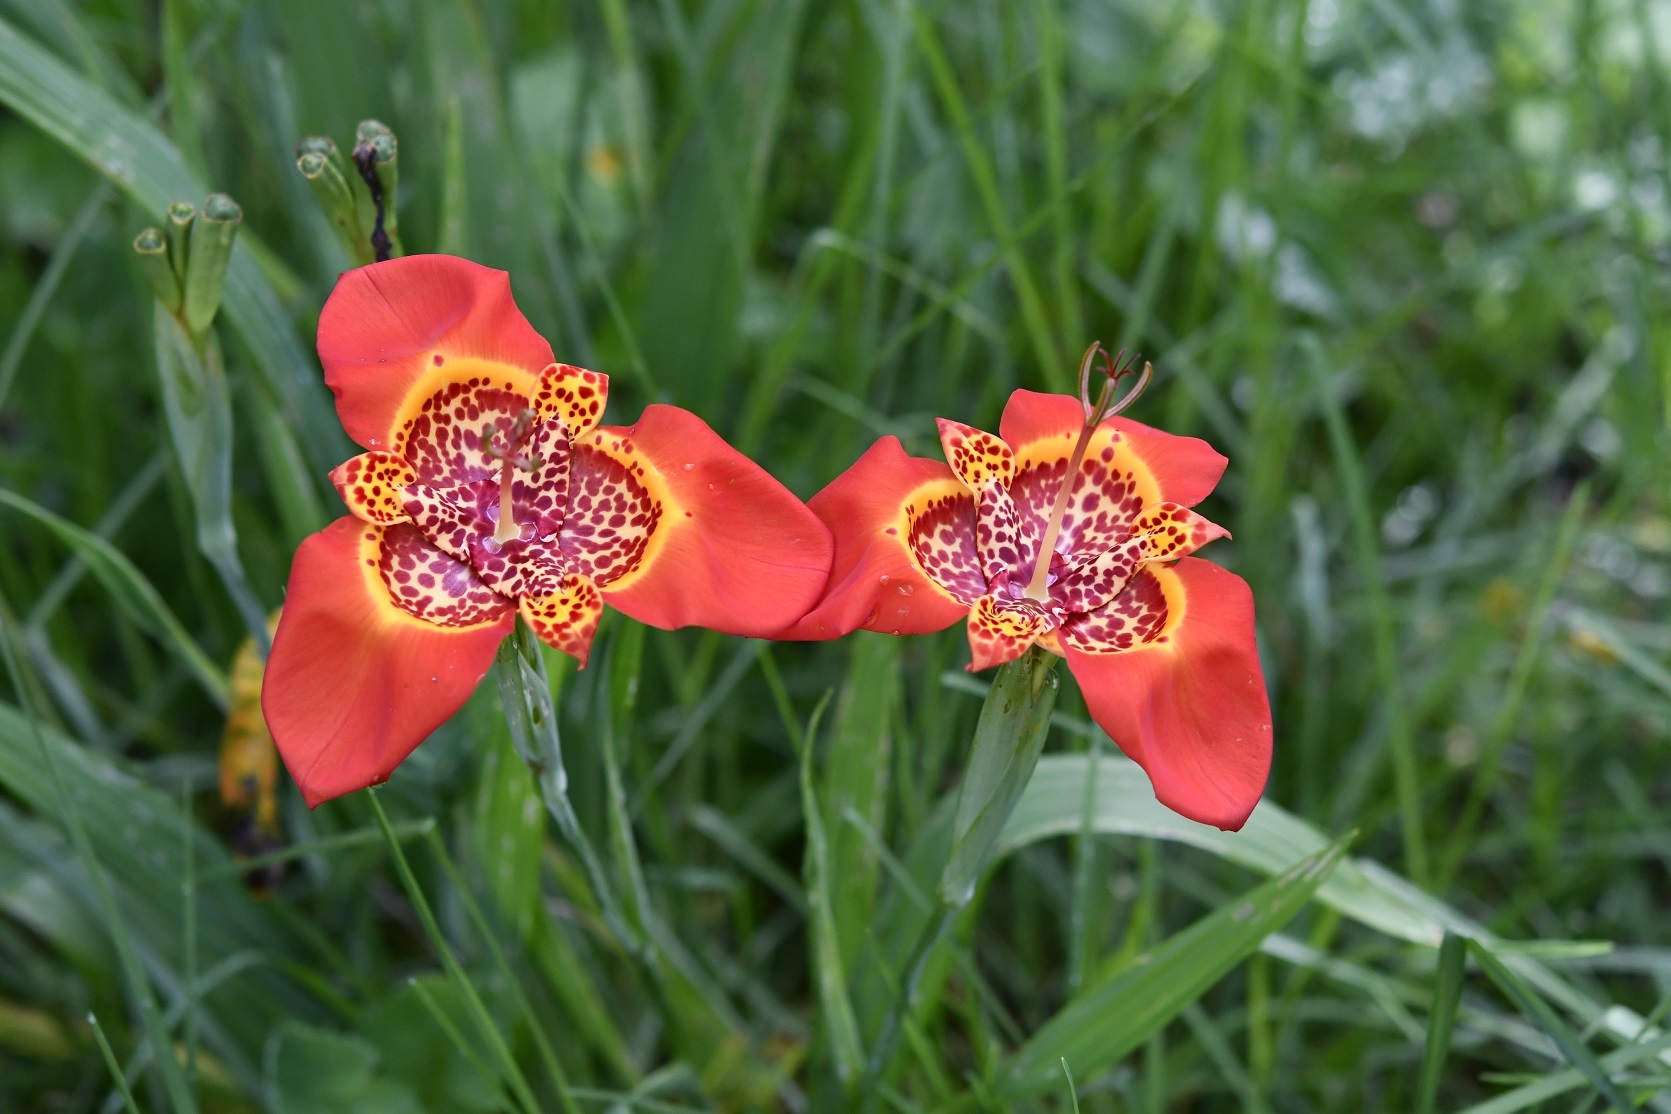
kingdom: Plantae
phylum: Tracheophyta
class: Liliopsida
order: Asparagales
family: Iridaceae
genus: Tigridia
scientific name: Tigridia pavonia
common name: Peacock-flower
